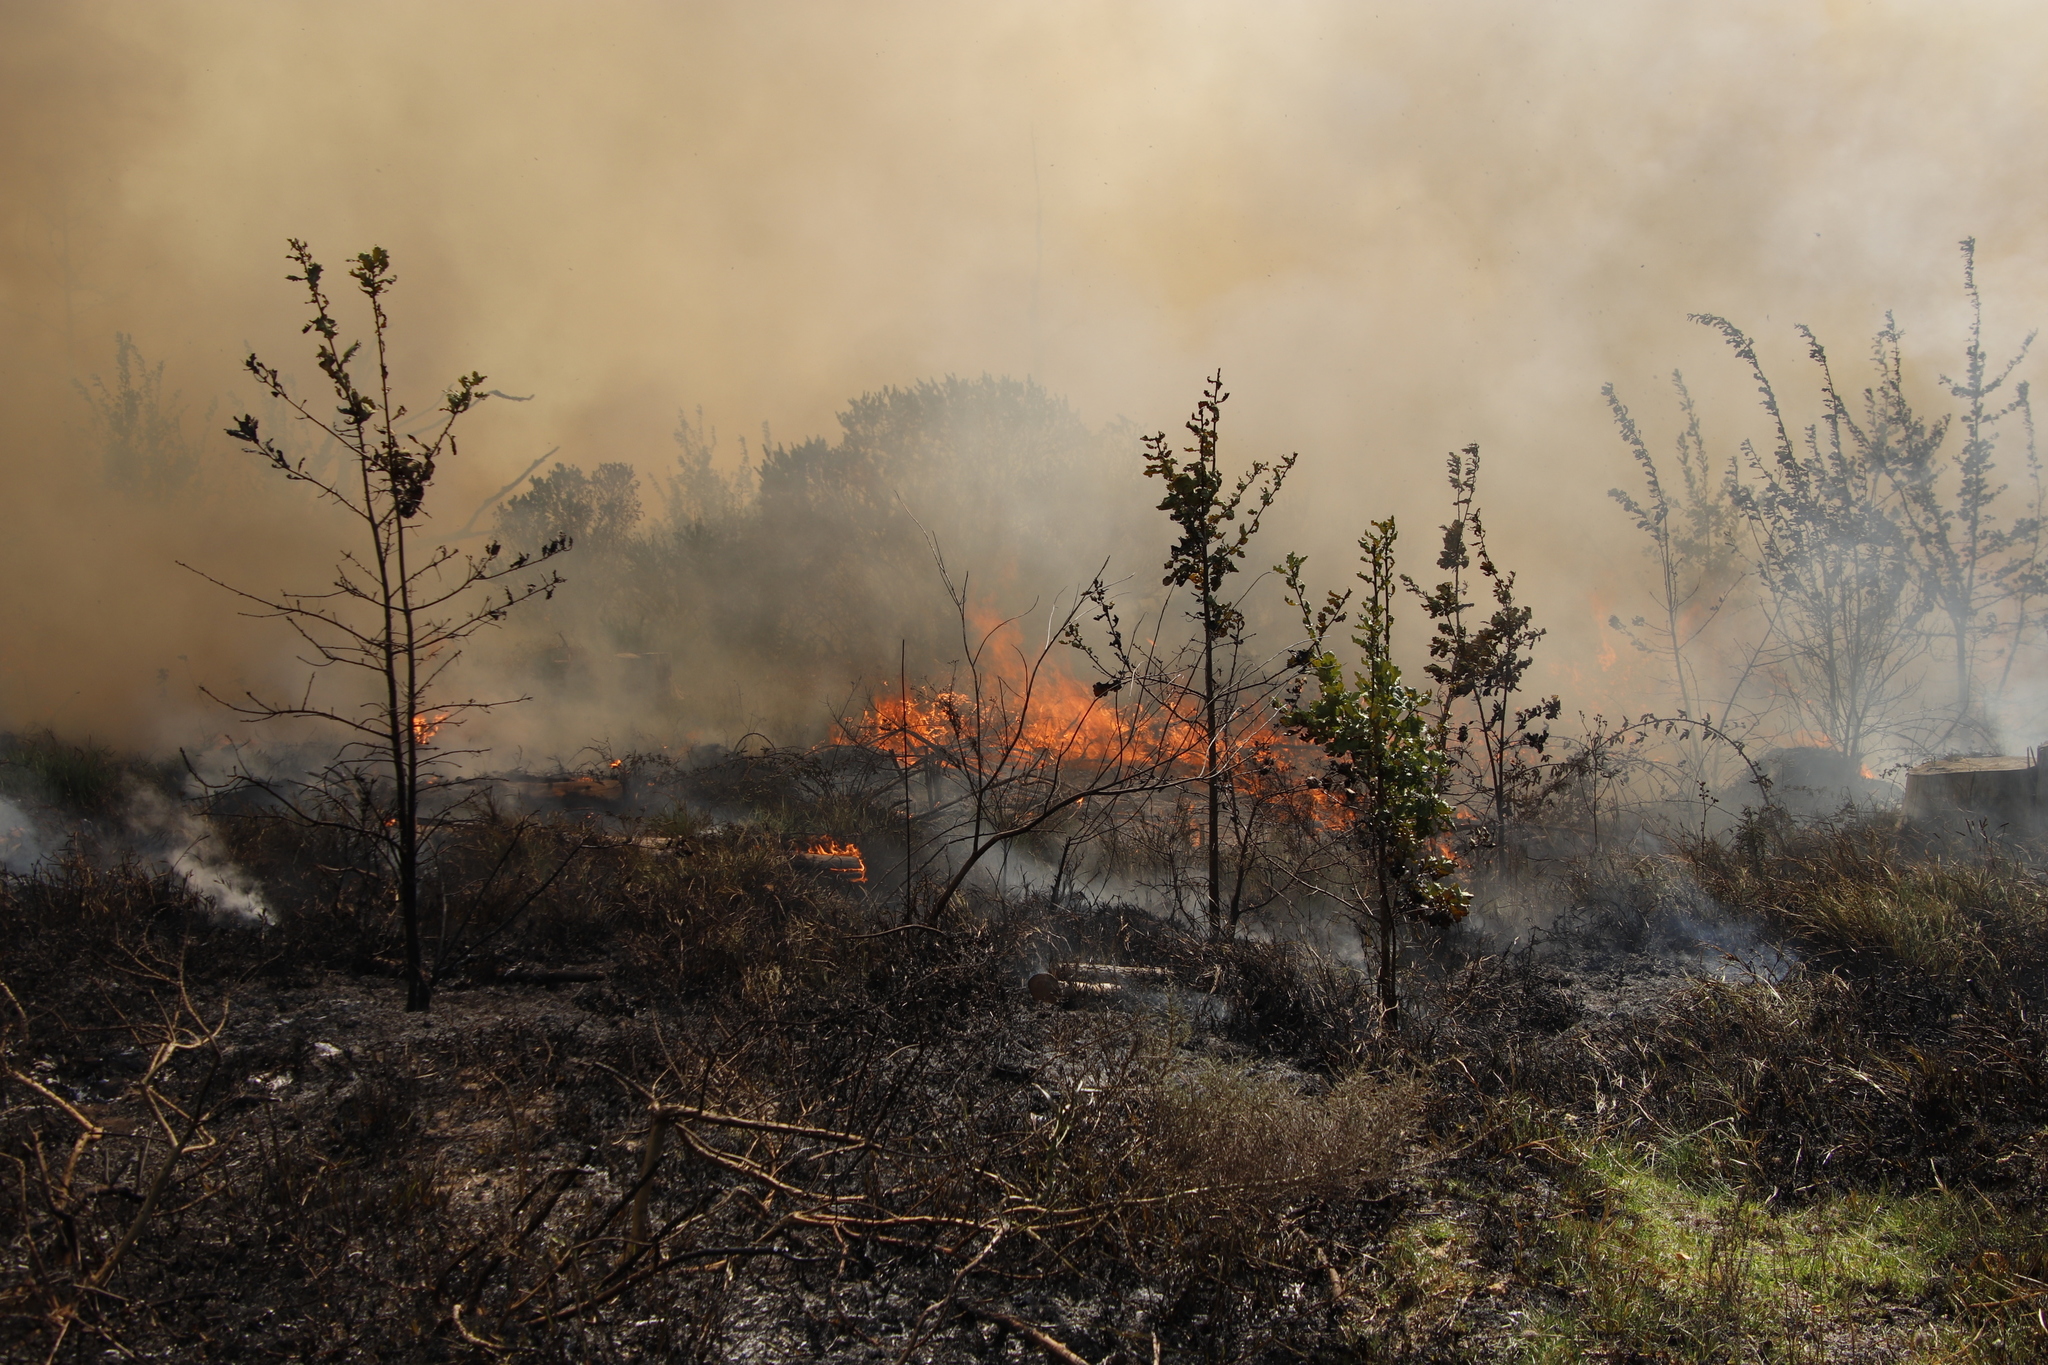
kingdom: Plantae
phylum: Tracheophyta
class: Magnoliopsida
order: Fagales
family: Fagaceae
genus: Quercus
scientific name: Quercus robur
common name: Pedunculate oak
